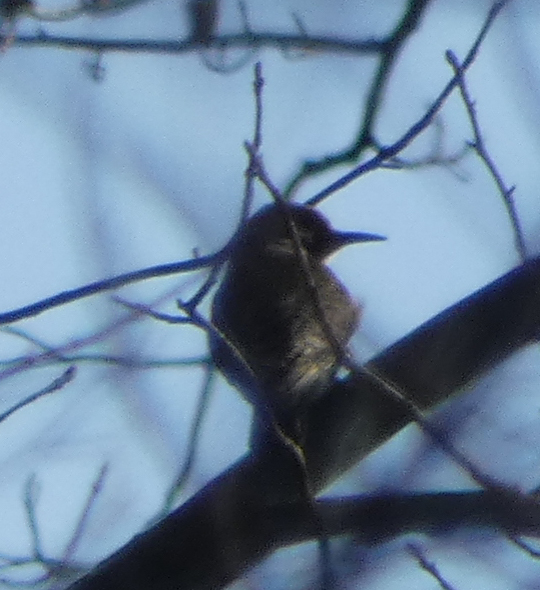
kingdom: Animalia
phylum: Chordata
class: Aves
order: Piciformes
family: Picidae
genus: Colaptes
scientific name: Colaptes auratus
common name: Northern flicker
